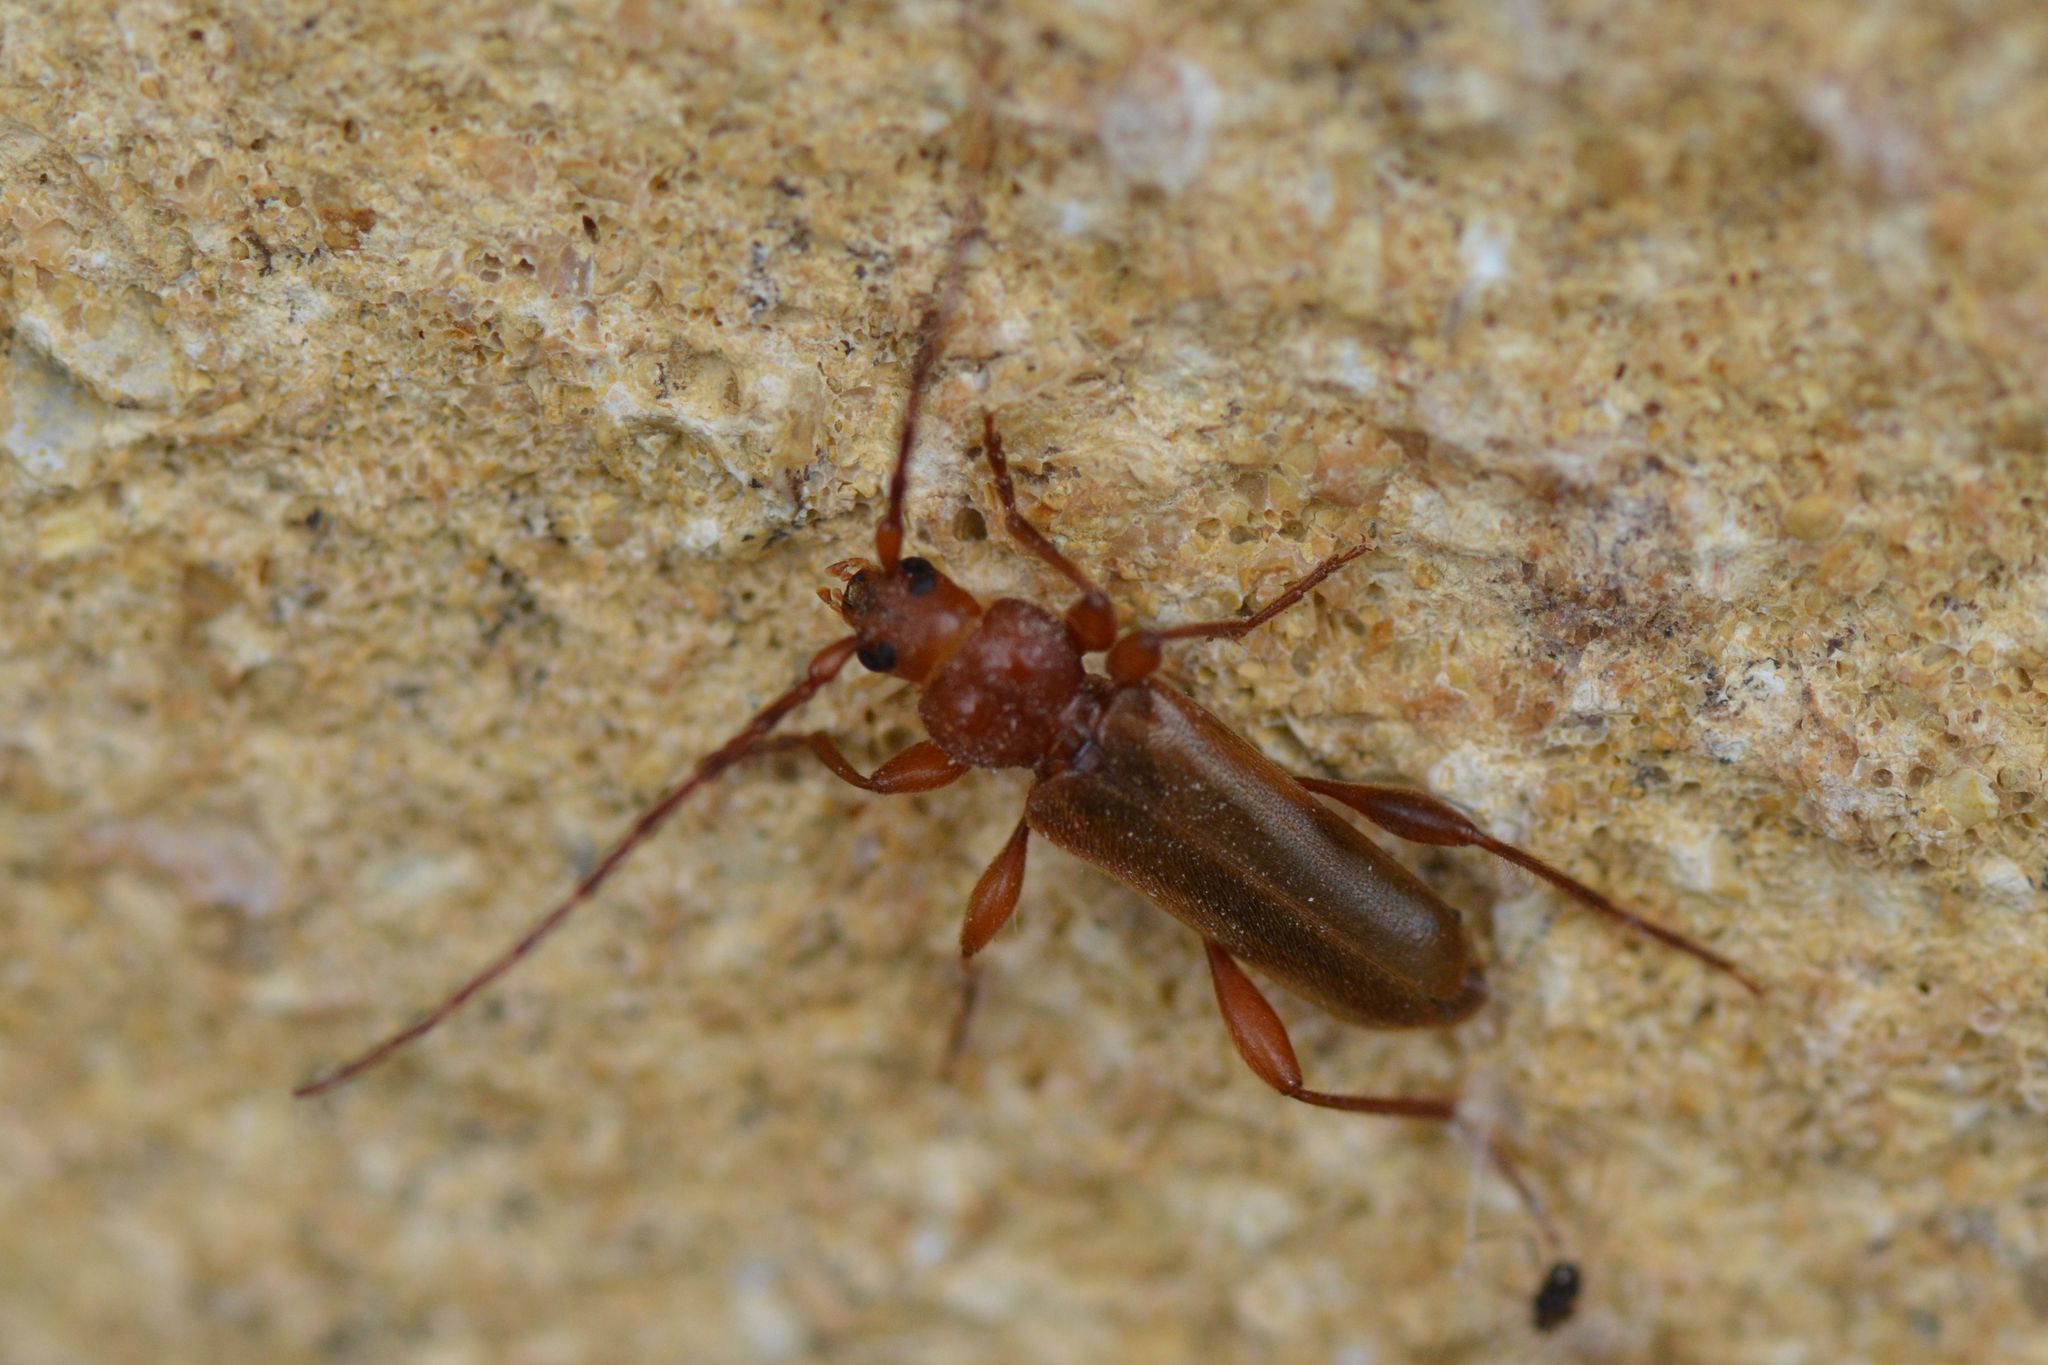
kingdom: Animalia
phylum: Arthropoda
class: Insecta
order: Coleoptera
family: Cerambycidae
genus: Phymatodes
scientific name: Phymatodes testaceus
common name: Long-horned beetle
